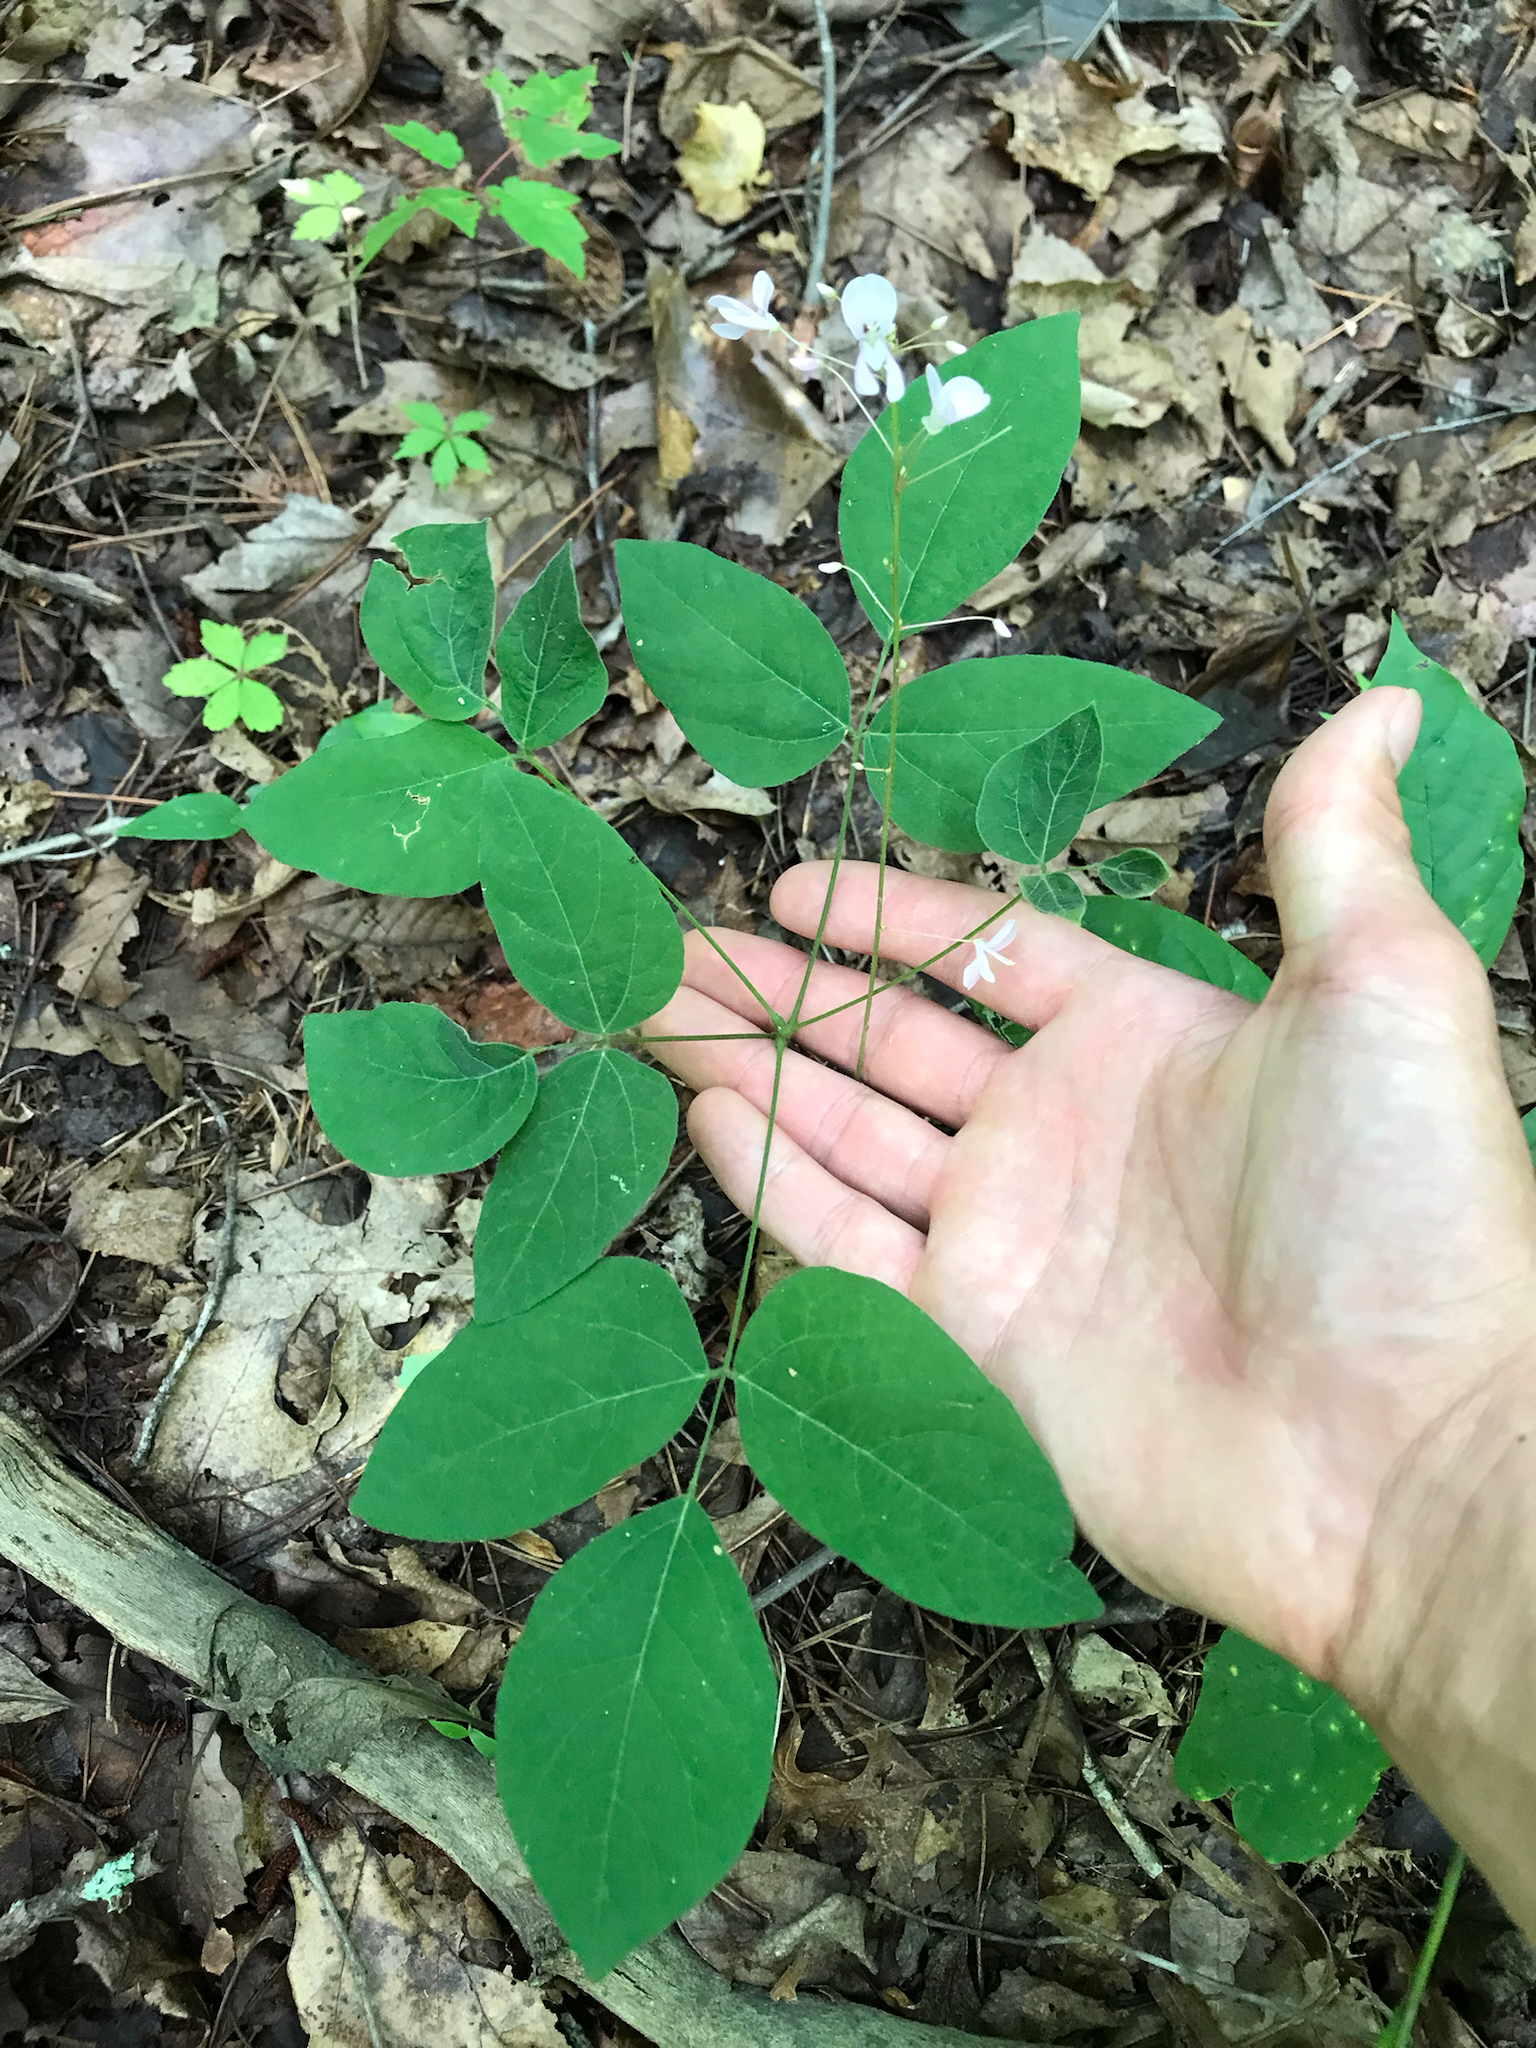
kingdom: Plantae
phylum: Tracheophyta
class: Magnoliopsida
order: Fabales
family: Fabaceae
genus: Hylodesmum
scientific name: Hylodesmum nudiflorum
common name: Bare-stemmed tick-trefoil
